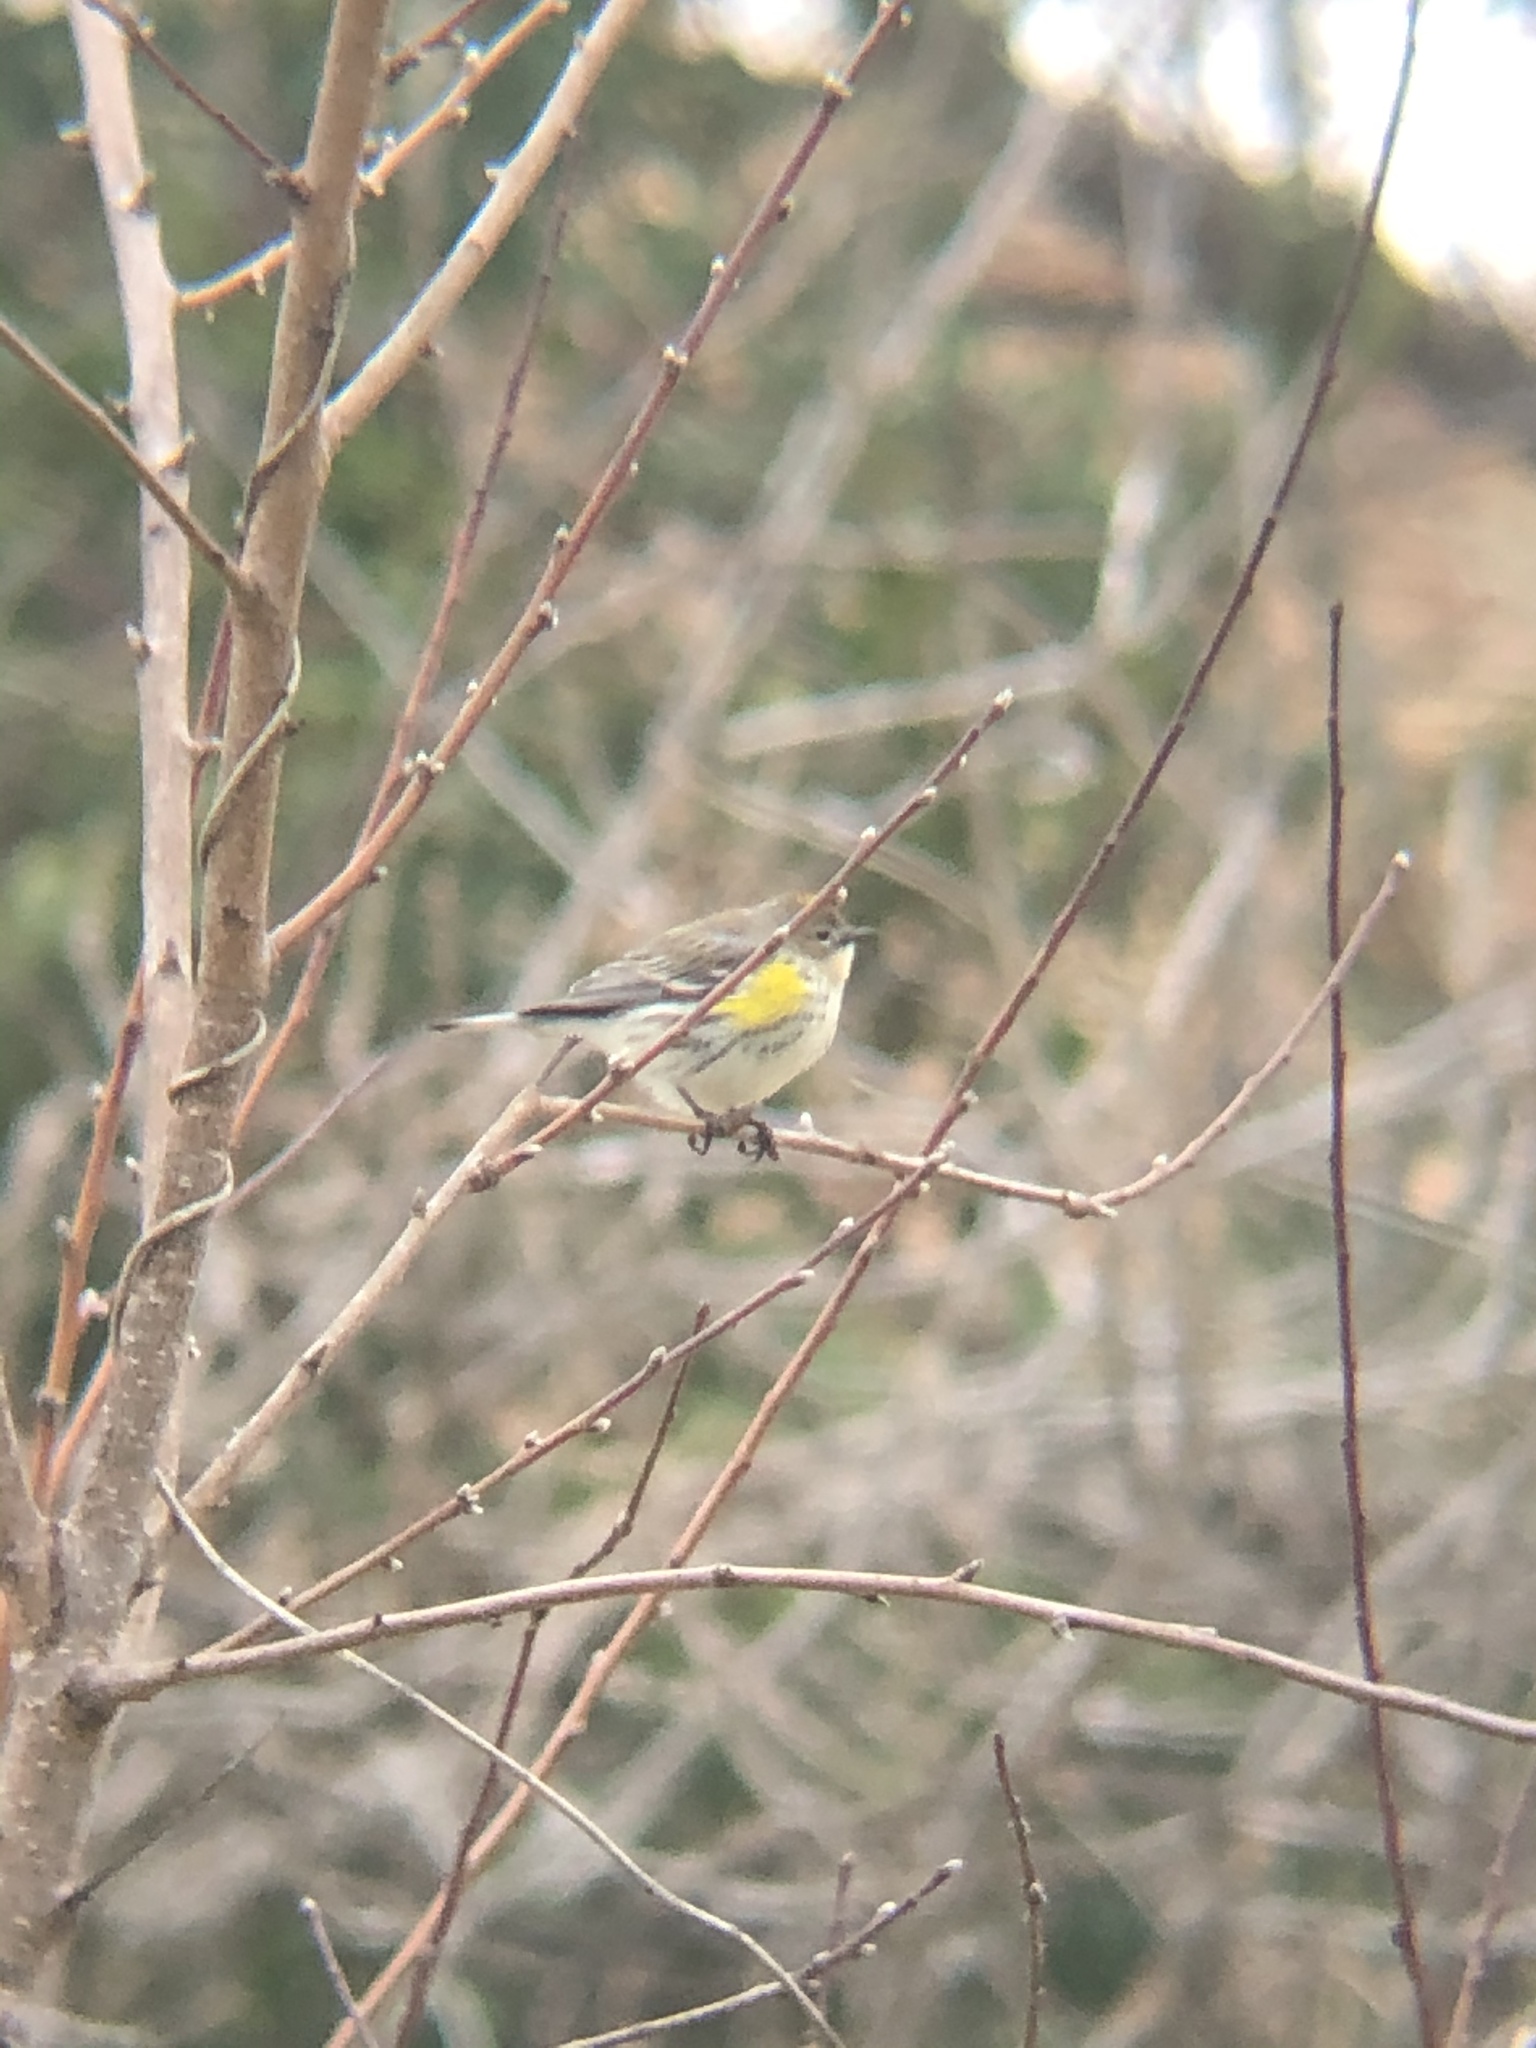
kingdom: Animalia
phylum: Chordata
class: Aves
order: Passeriformes
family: Parulidae
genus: Setophaga
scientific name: Setophaga coronata
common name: Myrtle warbler
